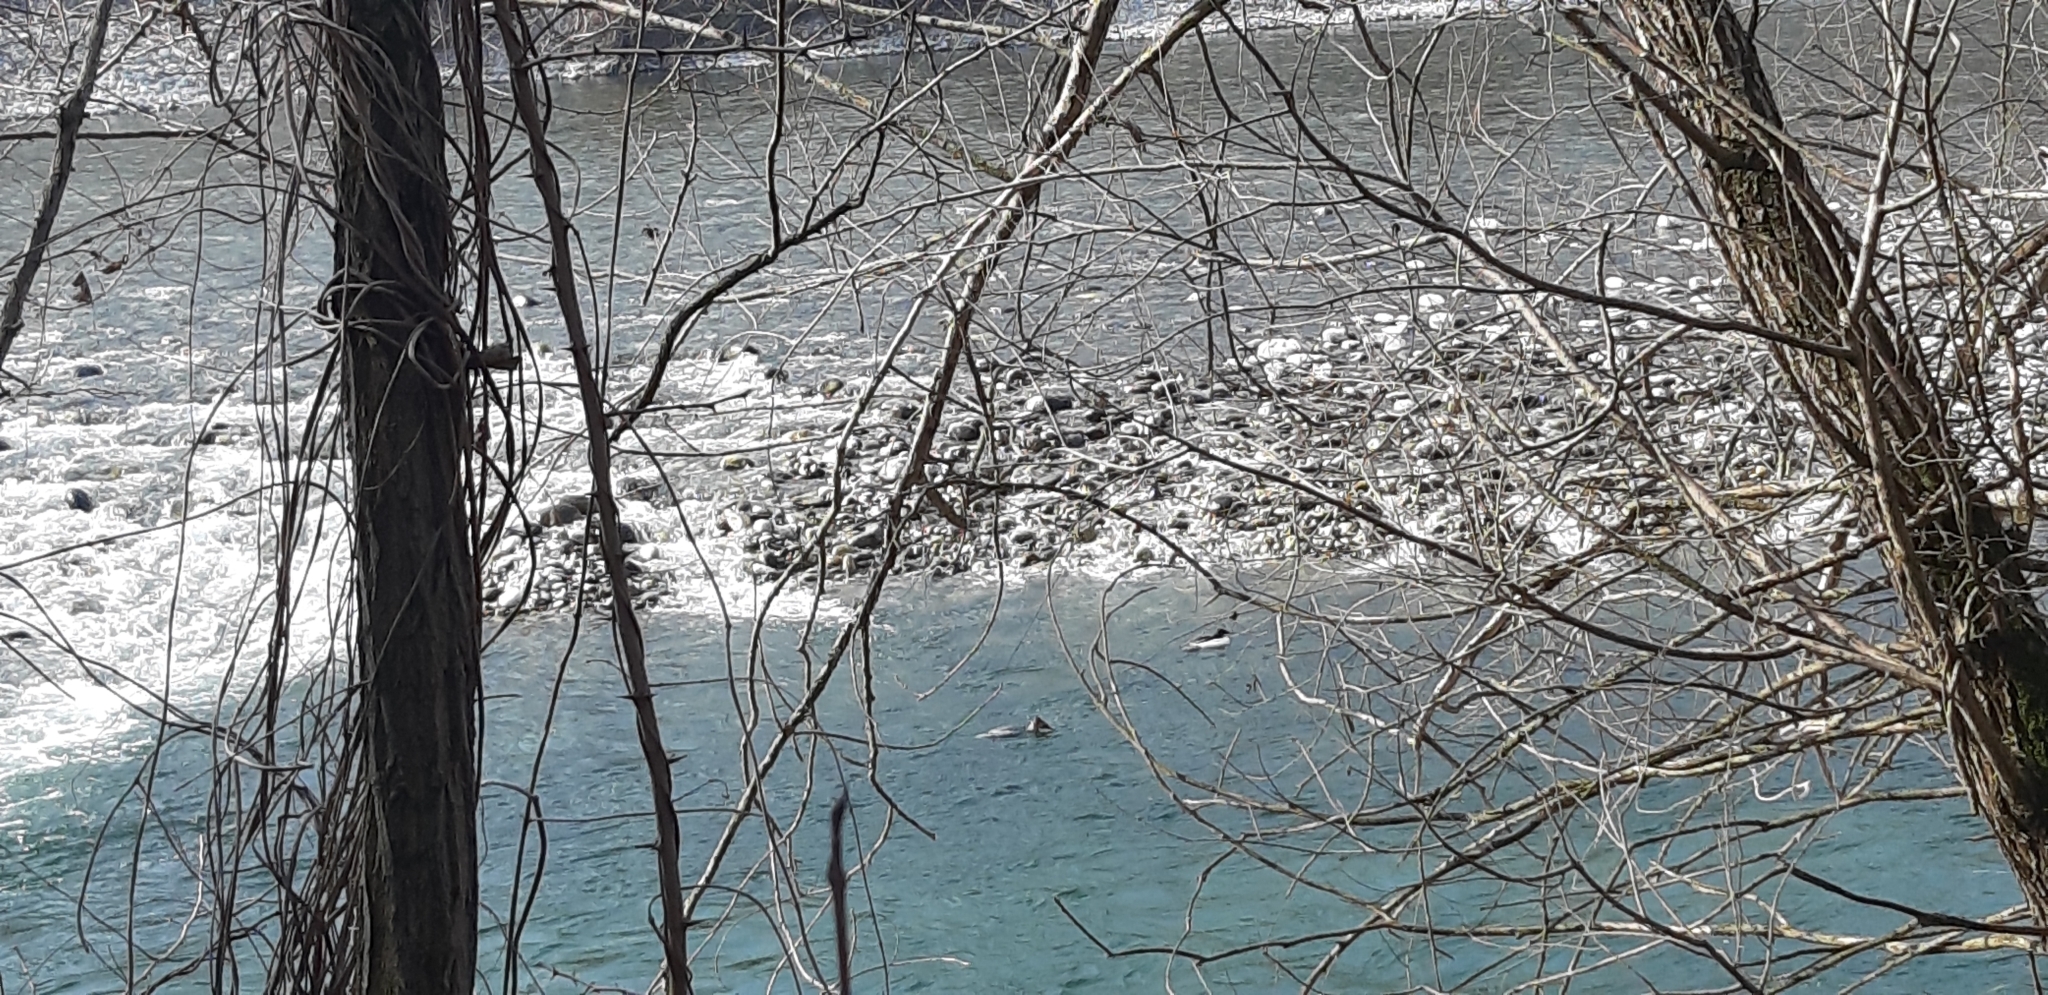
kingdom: Animalia
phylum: Chordata
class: Aves
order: Anseriformes
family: Anatidae
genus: Mergus
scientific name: Mergus merganser
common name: Common merganser
